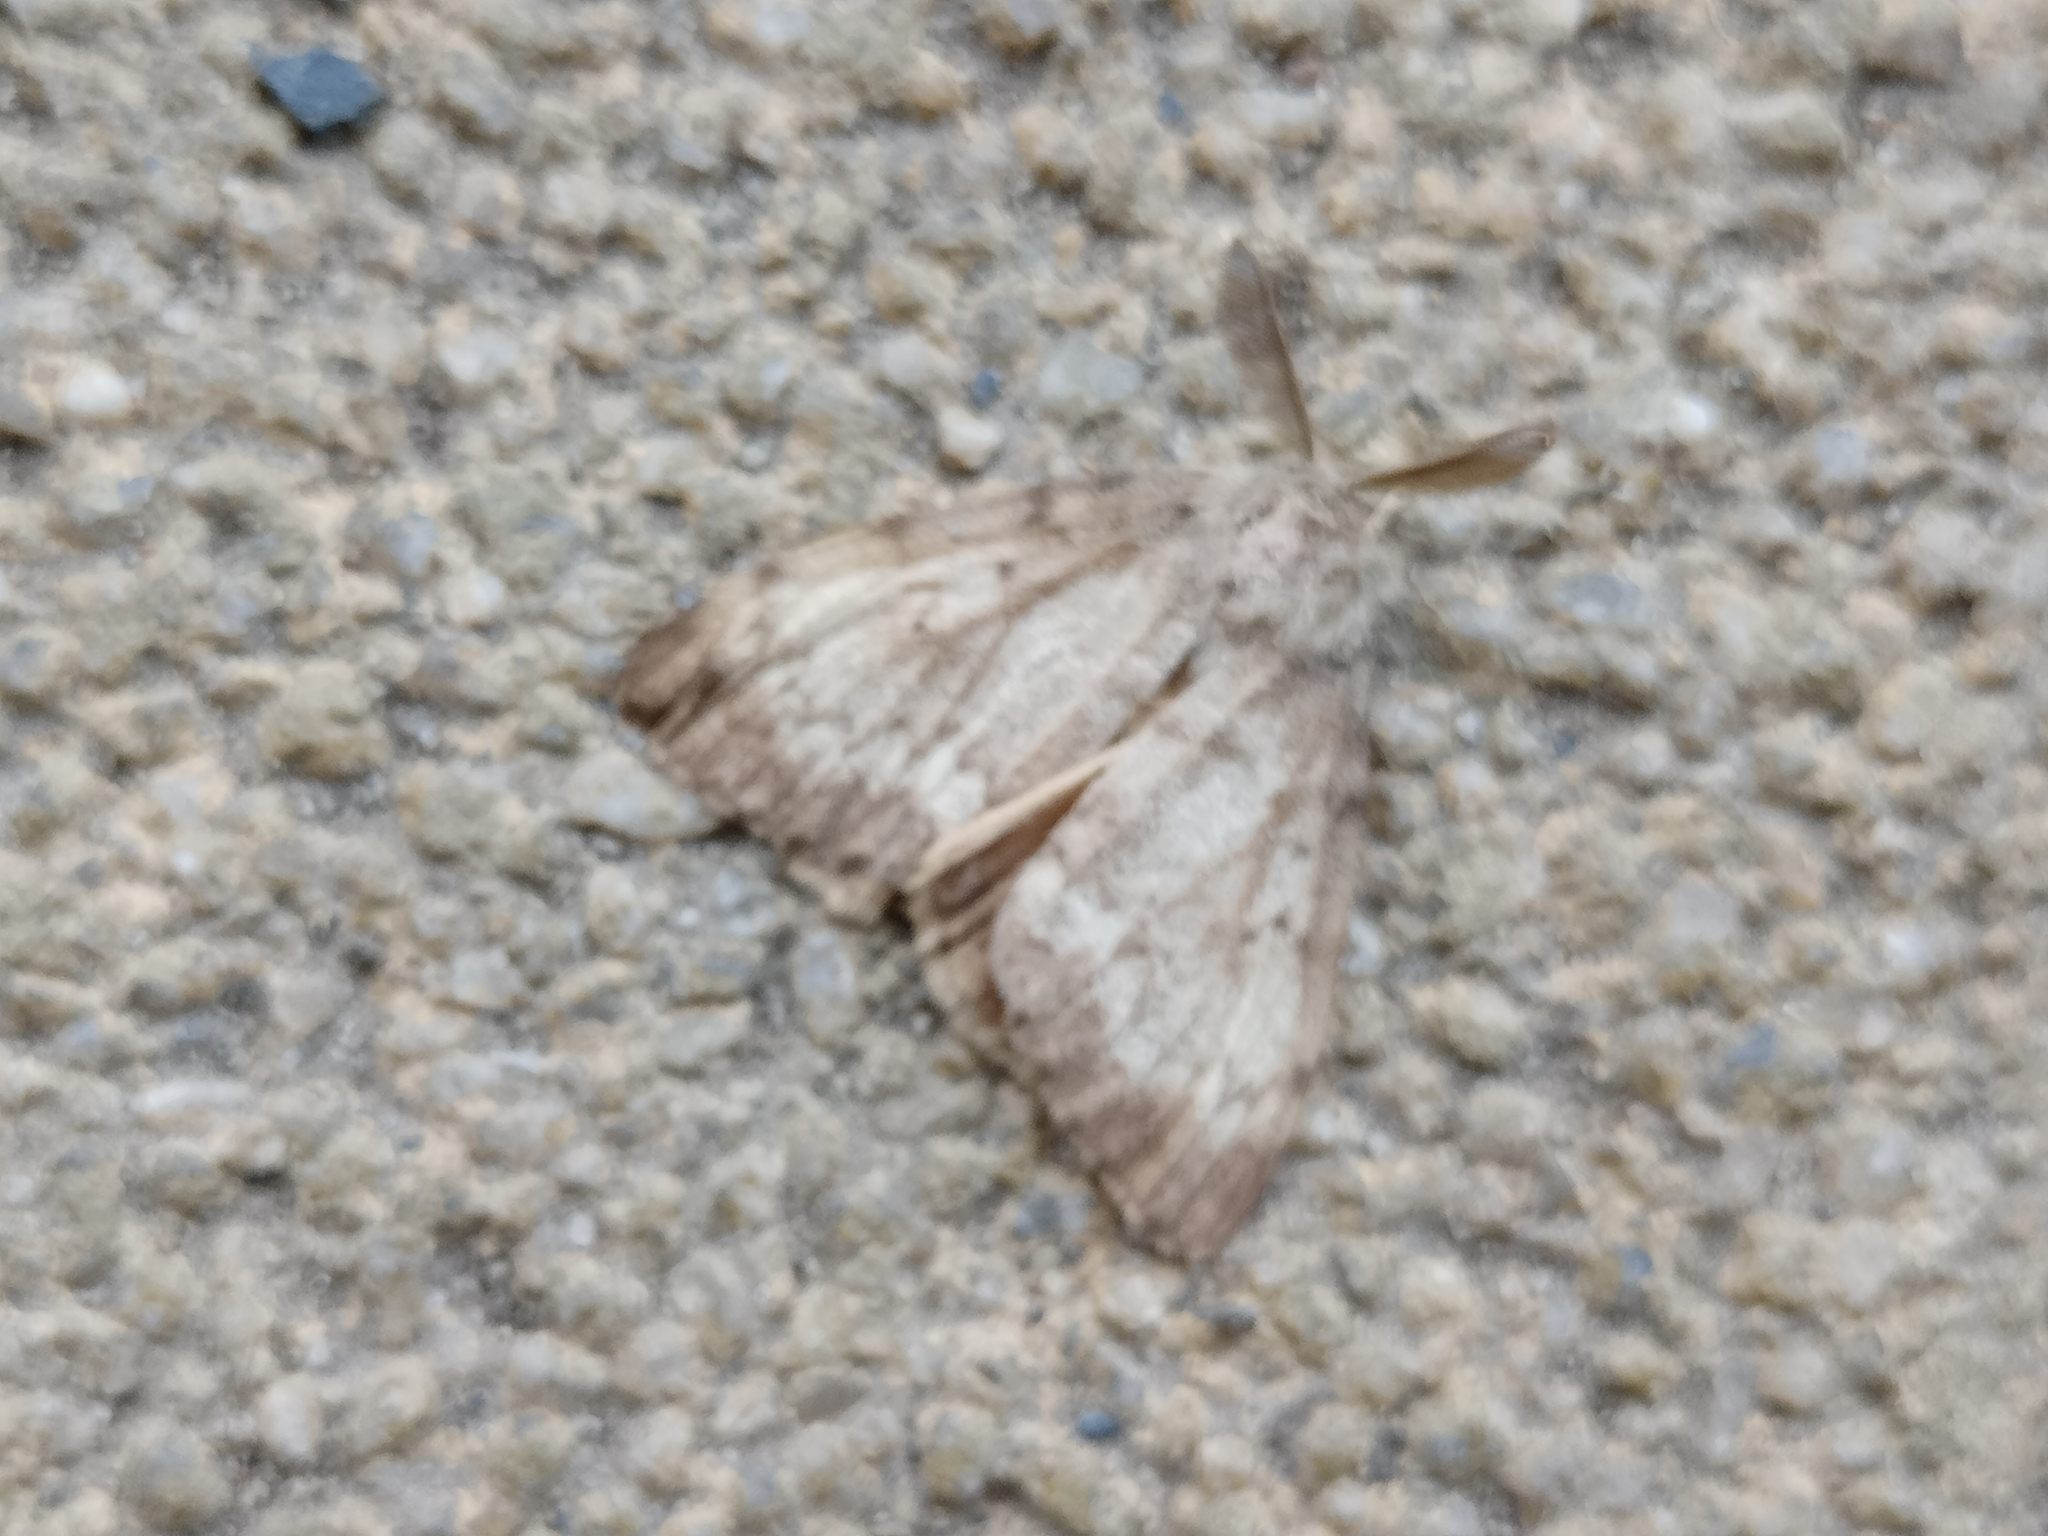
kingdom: Animalia
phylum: Arthropoda
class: Insecta
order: Lepidoptera
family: Erebidae
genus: Lymantria
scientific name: Lymantria dispar
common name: Gypsy moth
